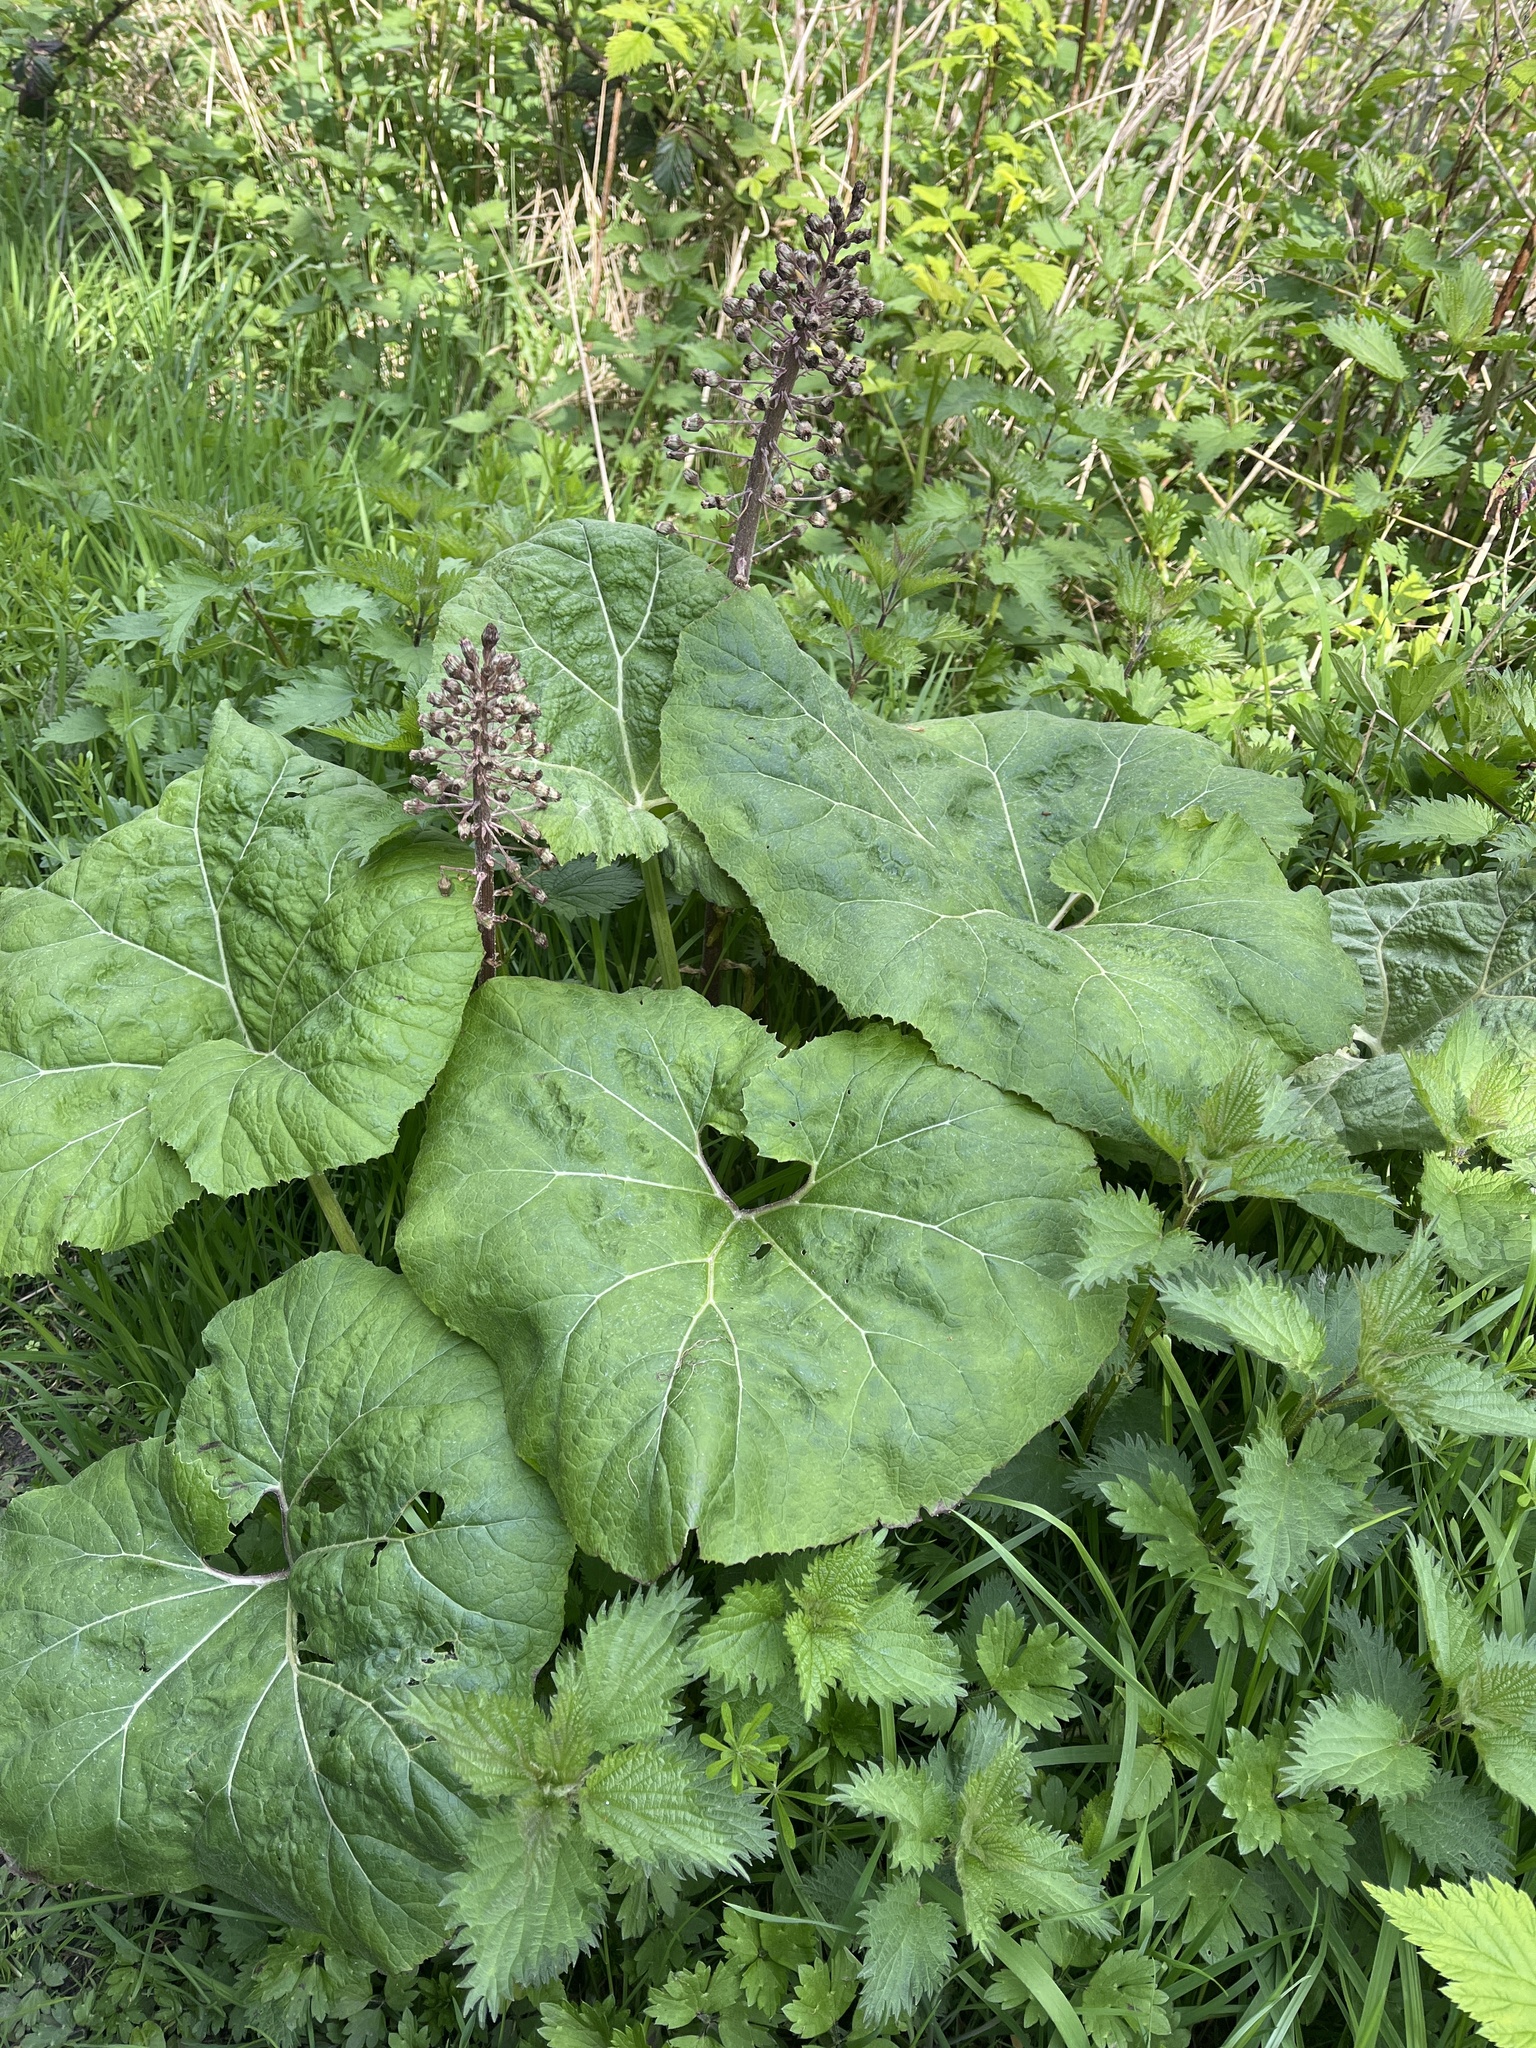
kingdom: Plantae
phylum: Tracheophyta
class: Magnoliopsida
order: Asterales
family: Asteraceae
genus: Petasites
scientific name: Petasites hybridus
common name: Butterbur
